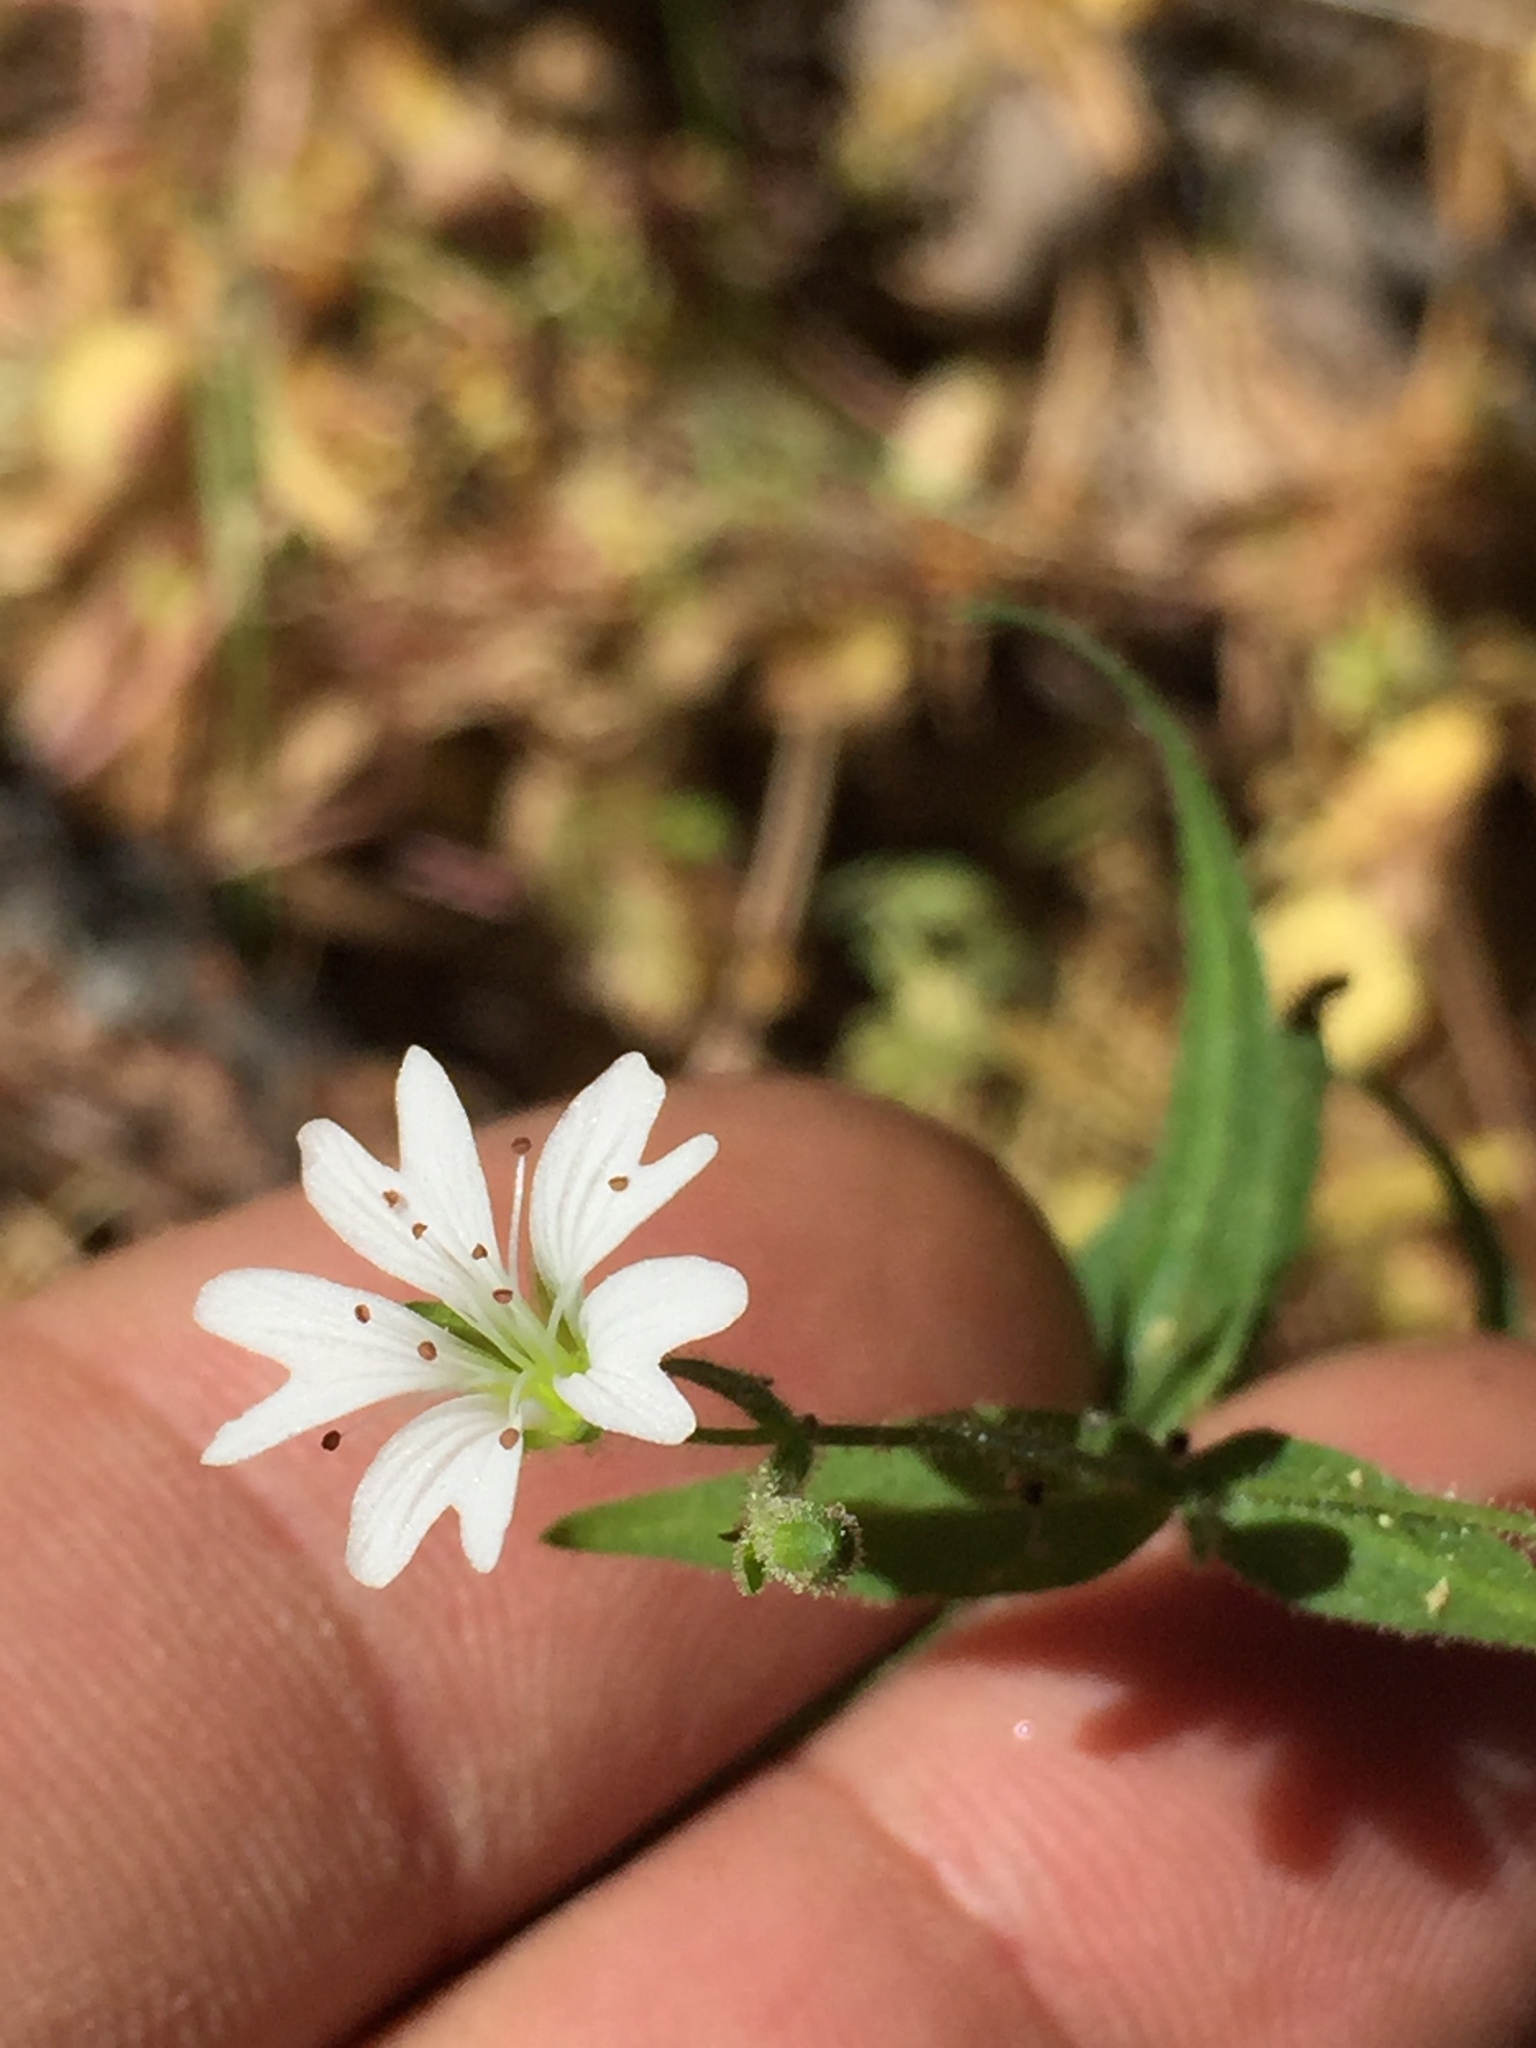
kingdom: Plantae
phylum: Tracheophyta
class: Magnoliopsida
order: Caryophyllales
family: Caryophyllaceae
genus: Schizotechium
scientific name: Schizotechium jamesianum
